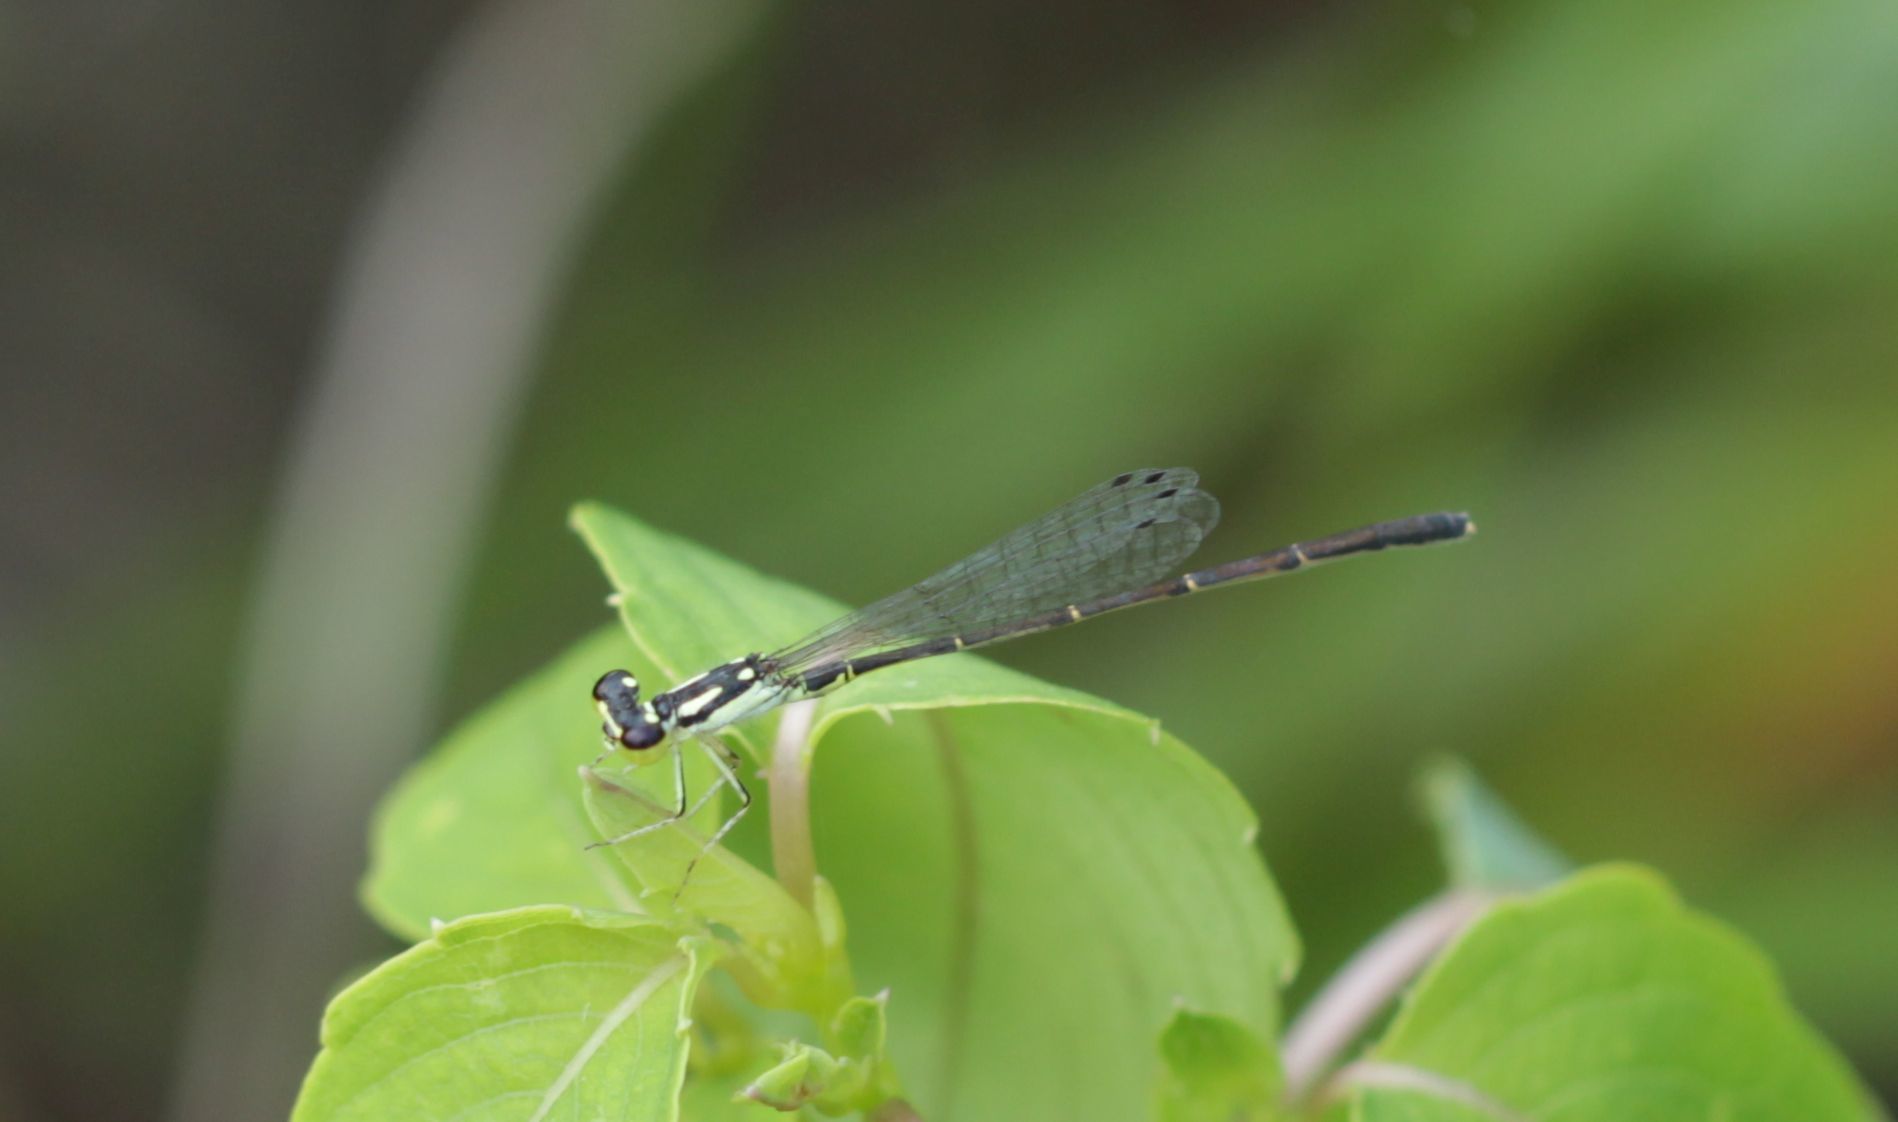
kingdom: Animalia
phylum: Arthropoda
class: Insecta
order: Odonata
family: Coenagrionidae
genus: Ischnura
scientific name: Ischnura posita
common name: Fragile forktail
